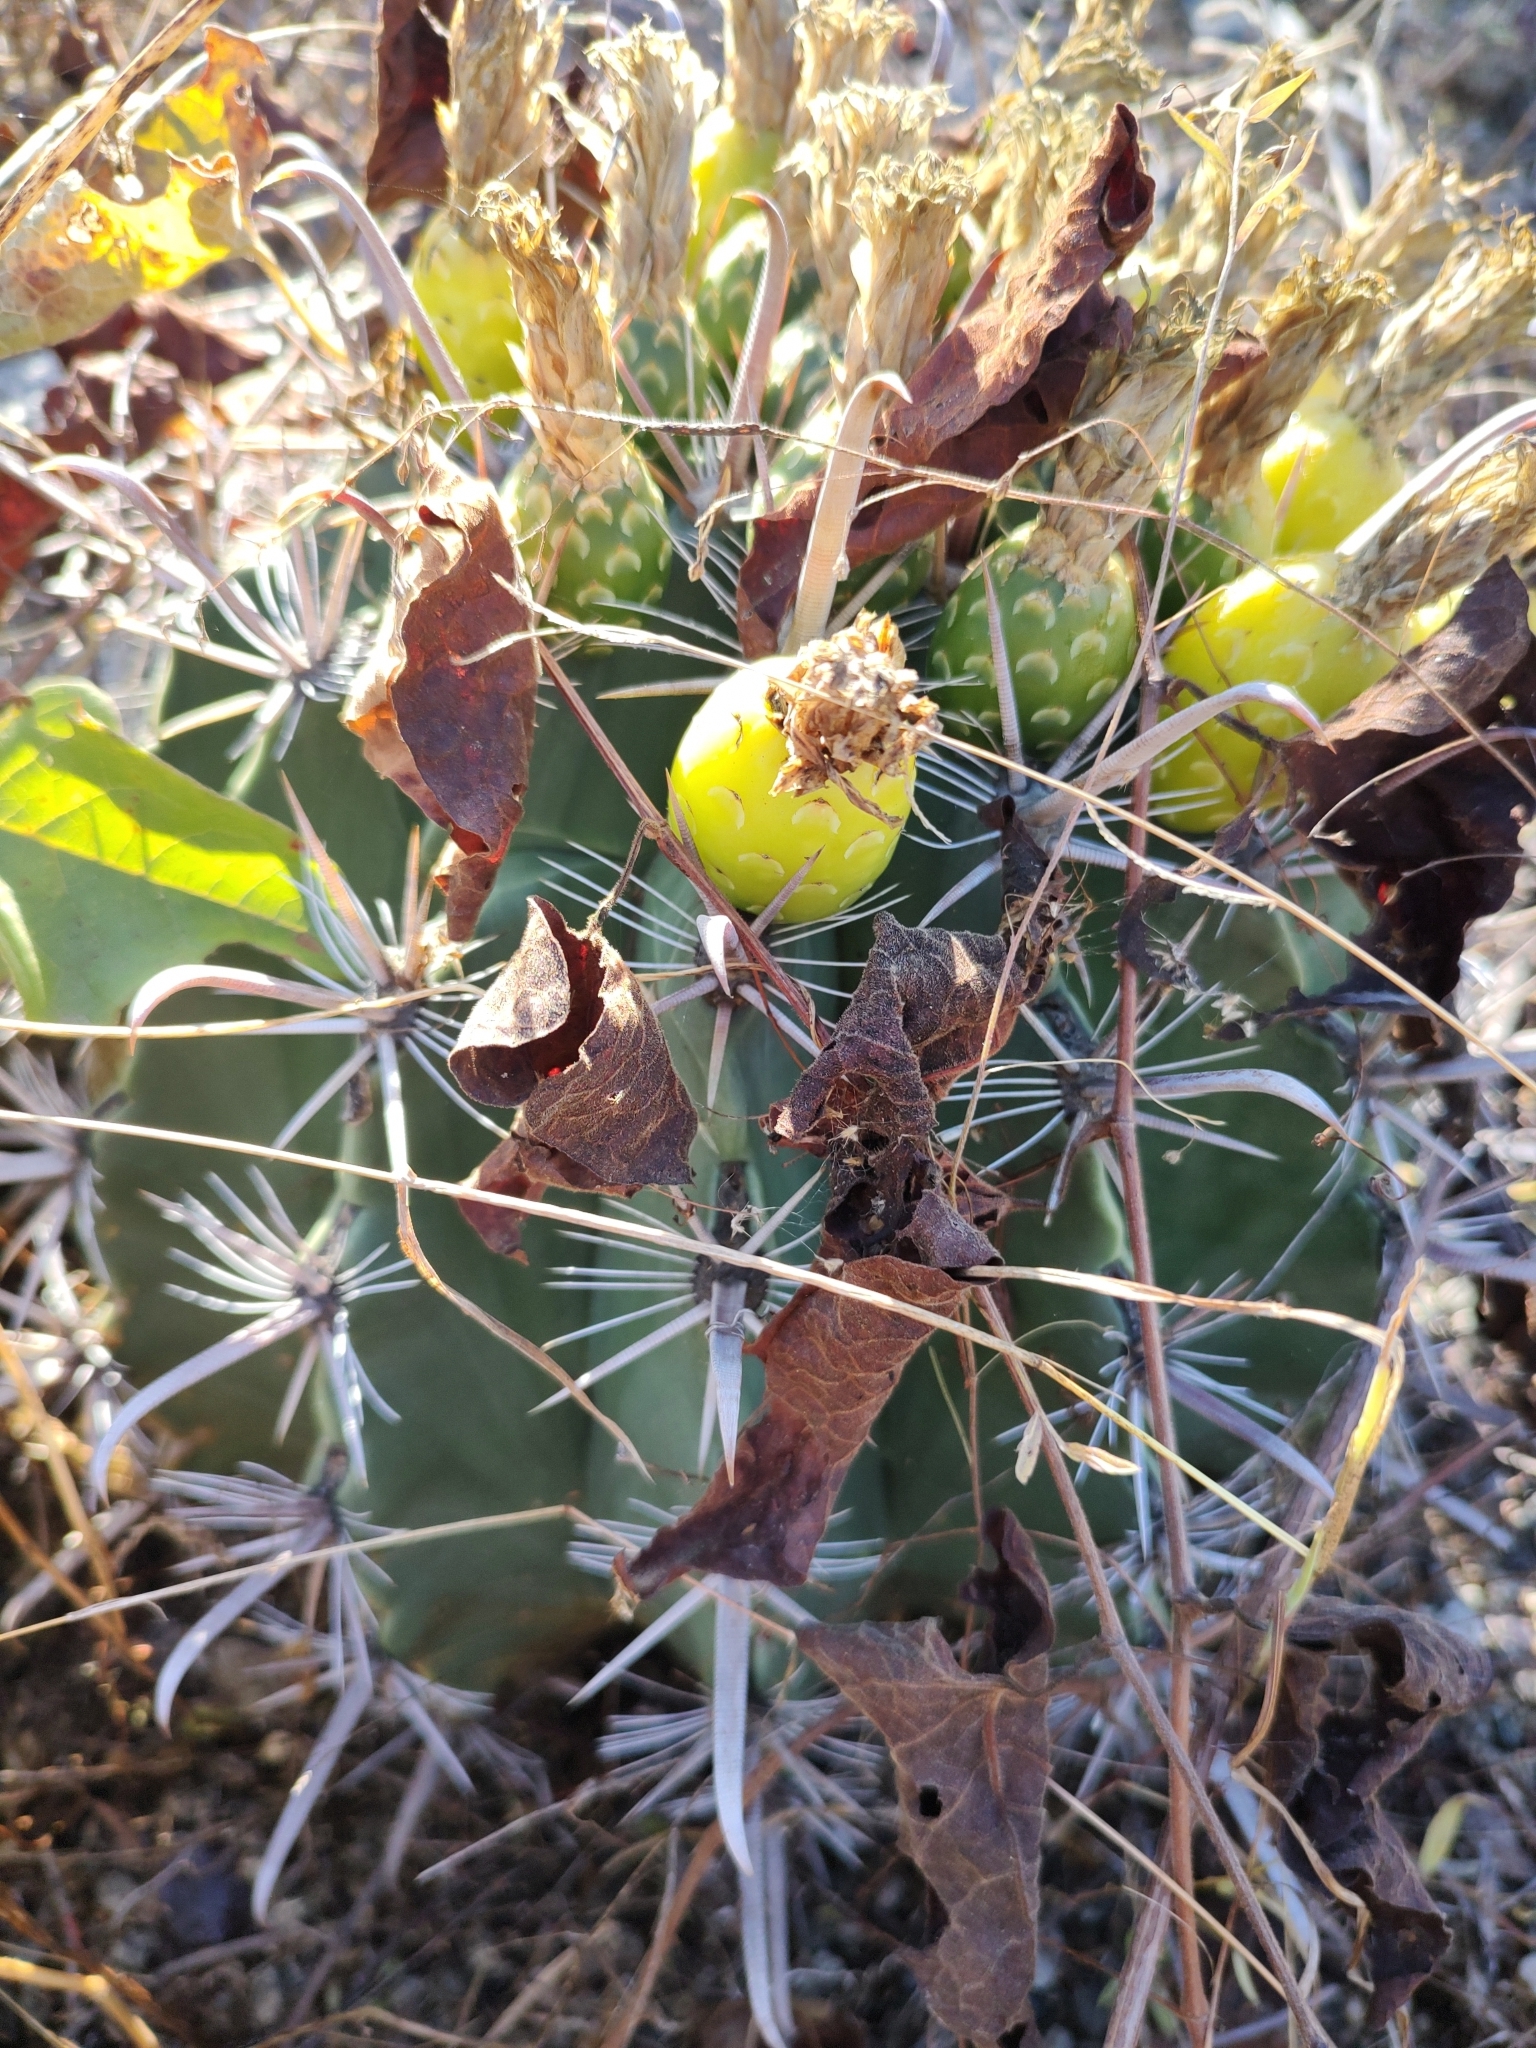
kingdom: Plantae
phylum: Tracheophyta
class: Magnoliopsida
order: Caryophyllales
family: Cactaceae
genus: Ferocactus
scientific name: Ferocactus townsendianus
